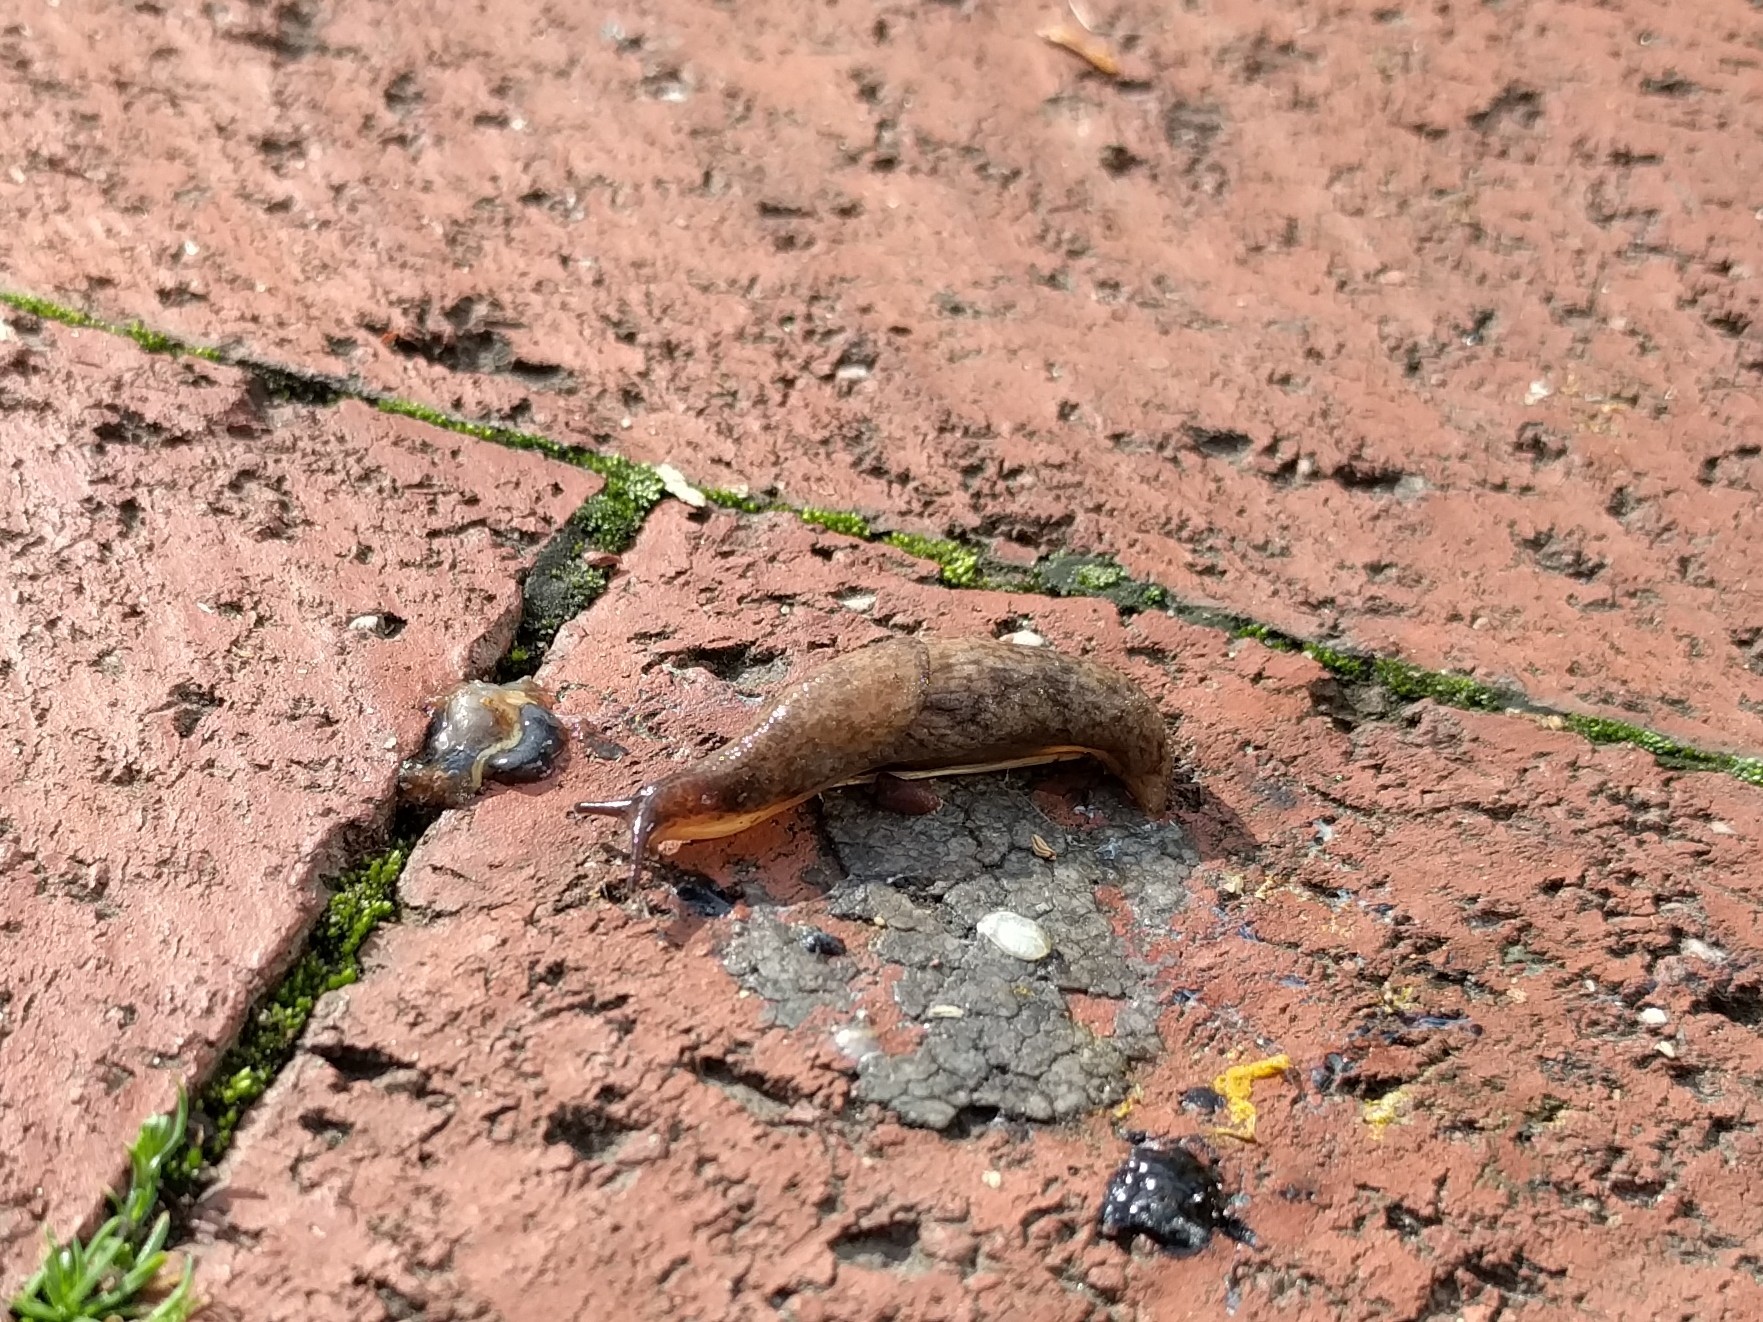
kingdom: Animalia
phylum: Mollusca
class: Gastropoda
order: Stylommatophora
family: Agriolimacidae
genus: Deroceras
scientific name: Deroceras reticulatum
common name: Gray field slug
